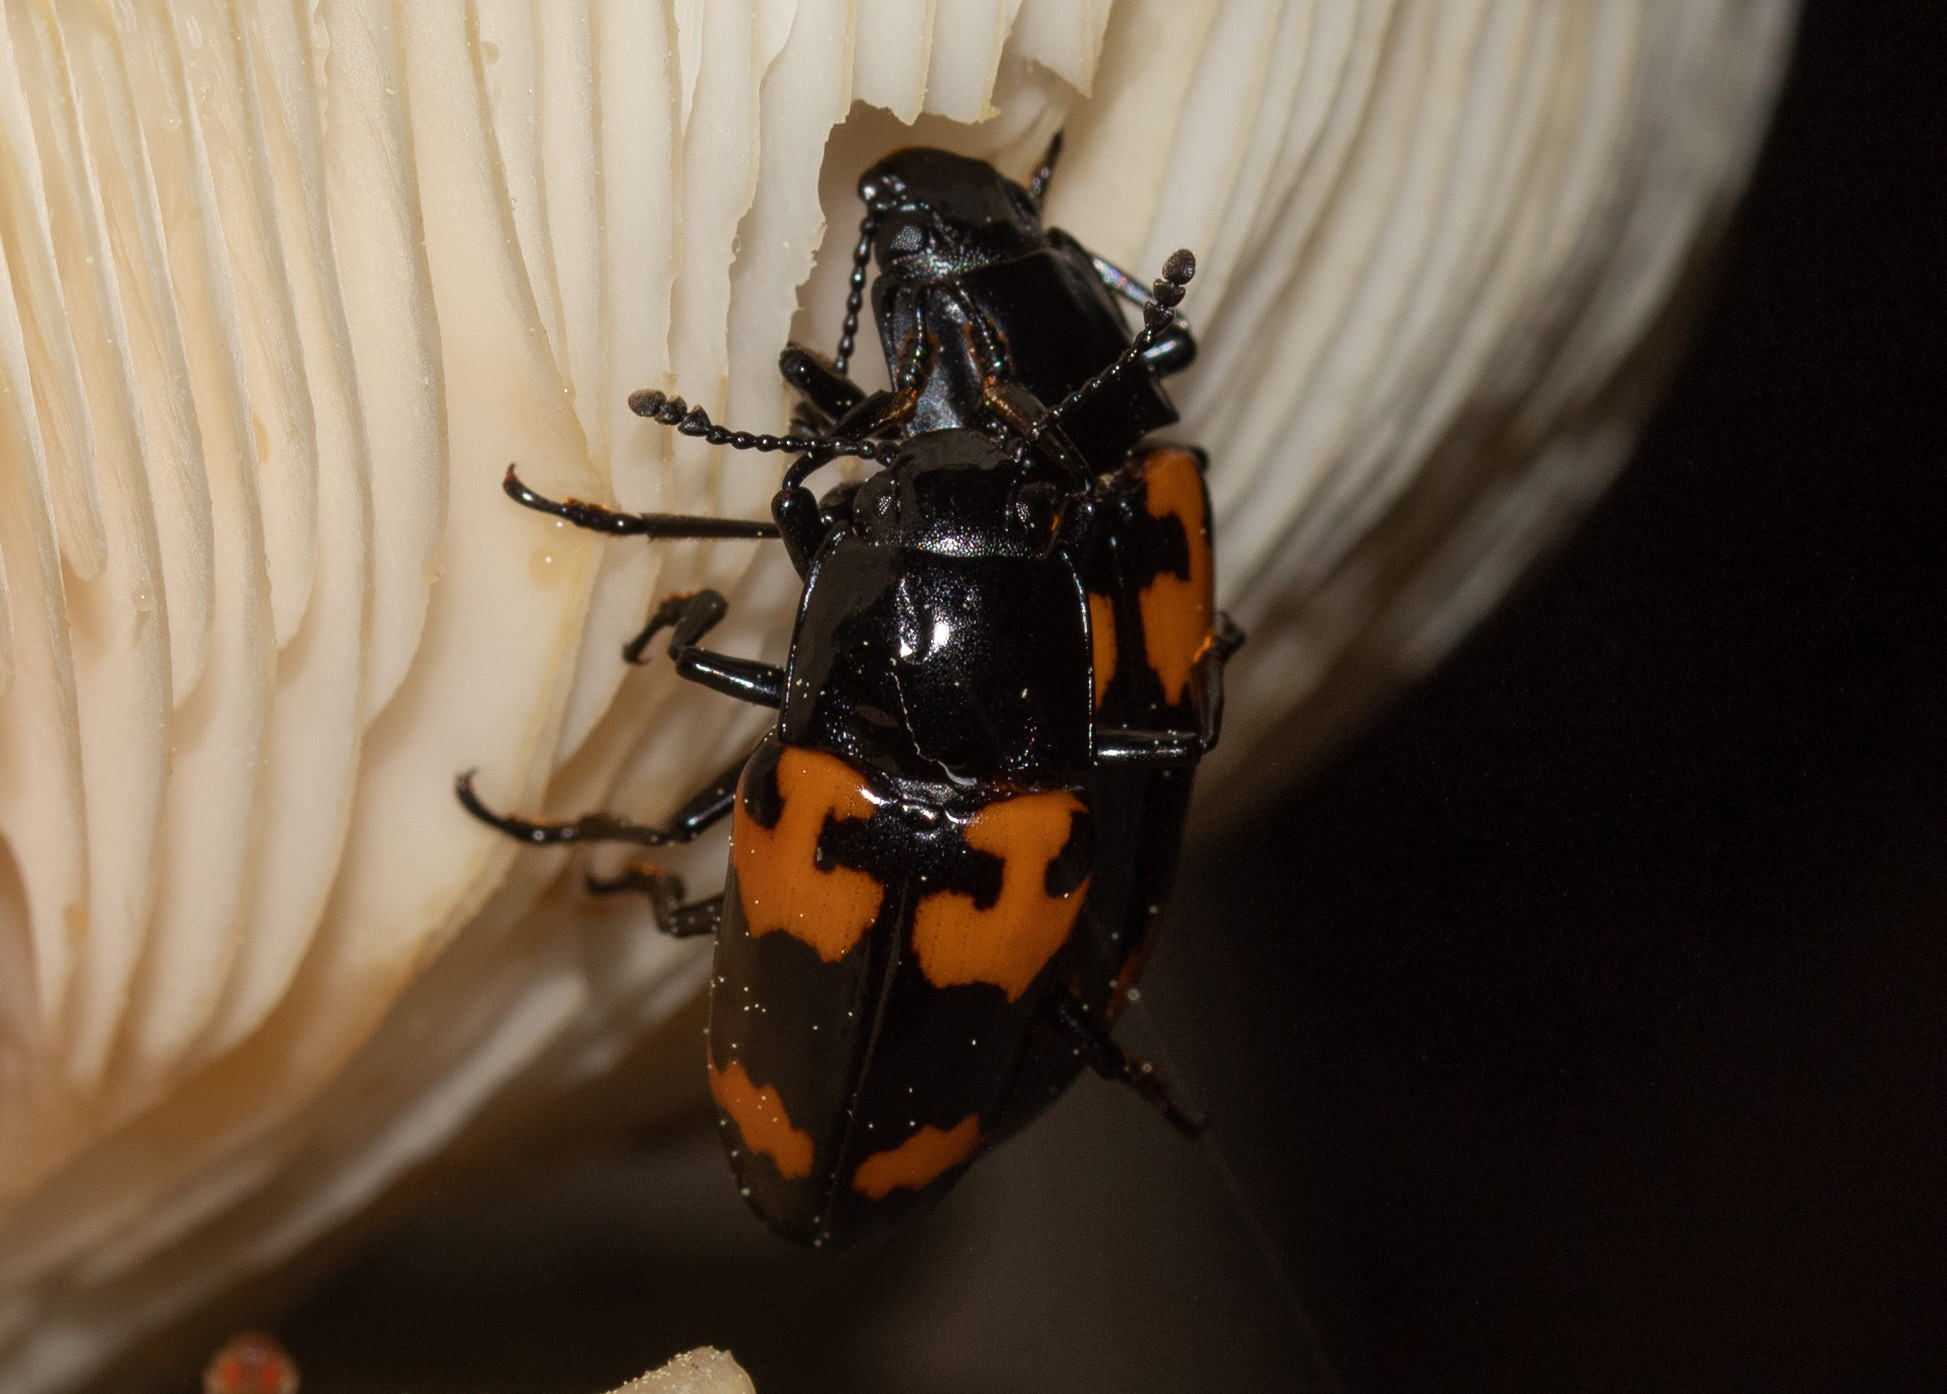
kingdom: Animalia
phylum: Arthropoda
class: Insecta
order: Coleoptera
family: Erotylidae
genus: Megalodacne
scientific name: Megalodacne heros
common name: Pleasing fungus beetle
